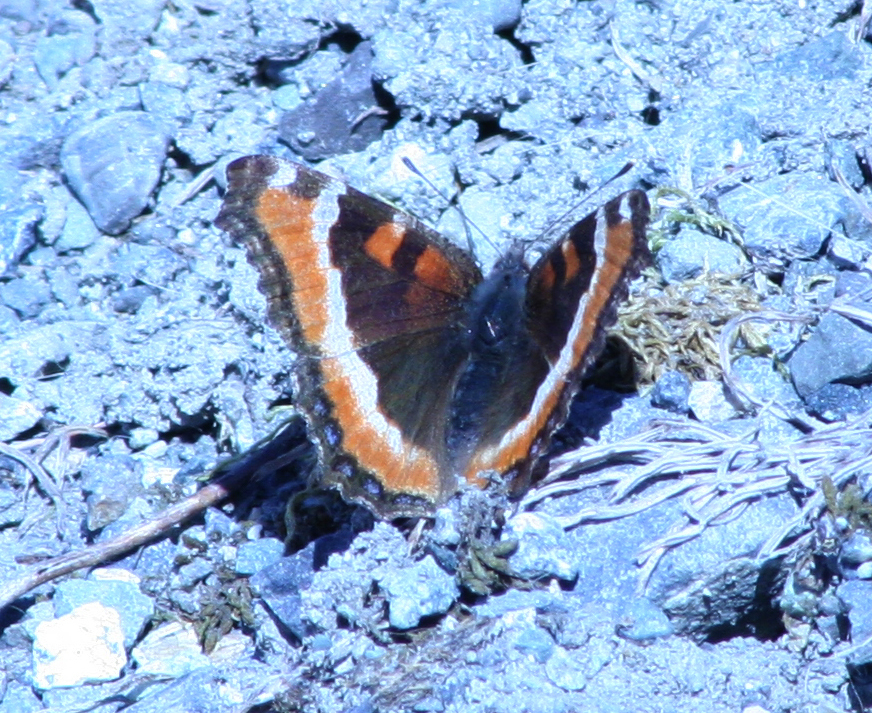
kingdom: Animalia
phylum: Arthropoda
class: Insecta
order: Lepidoptera
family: Nymphalidae
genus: Aglais
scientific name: Aglais milberti
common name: Milbert's tortoiseshell
